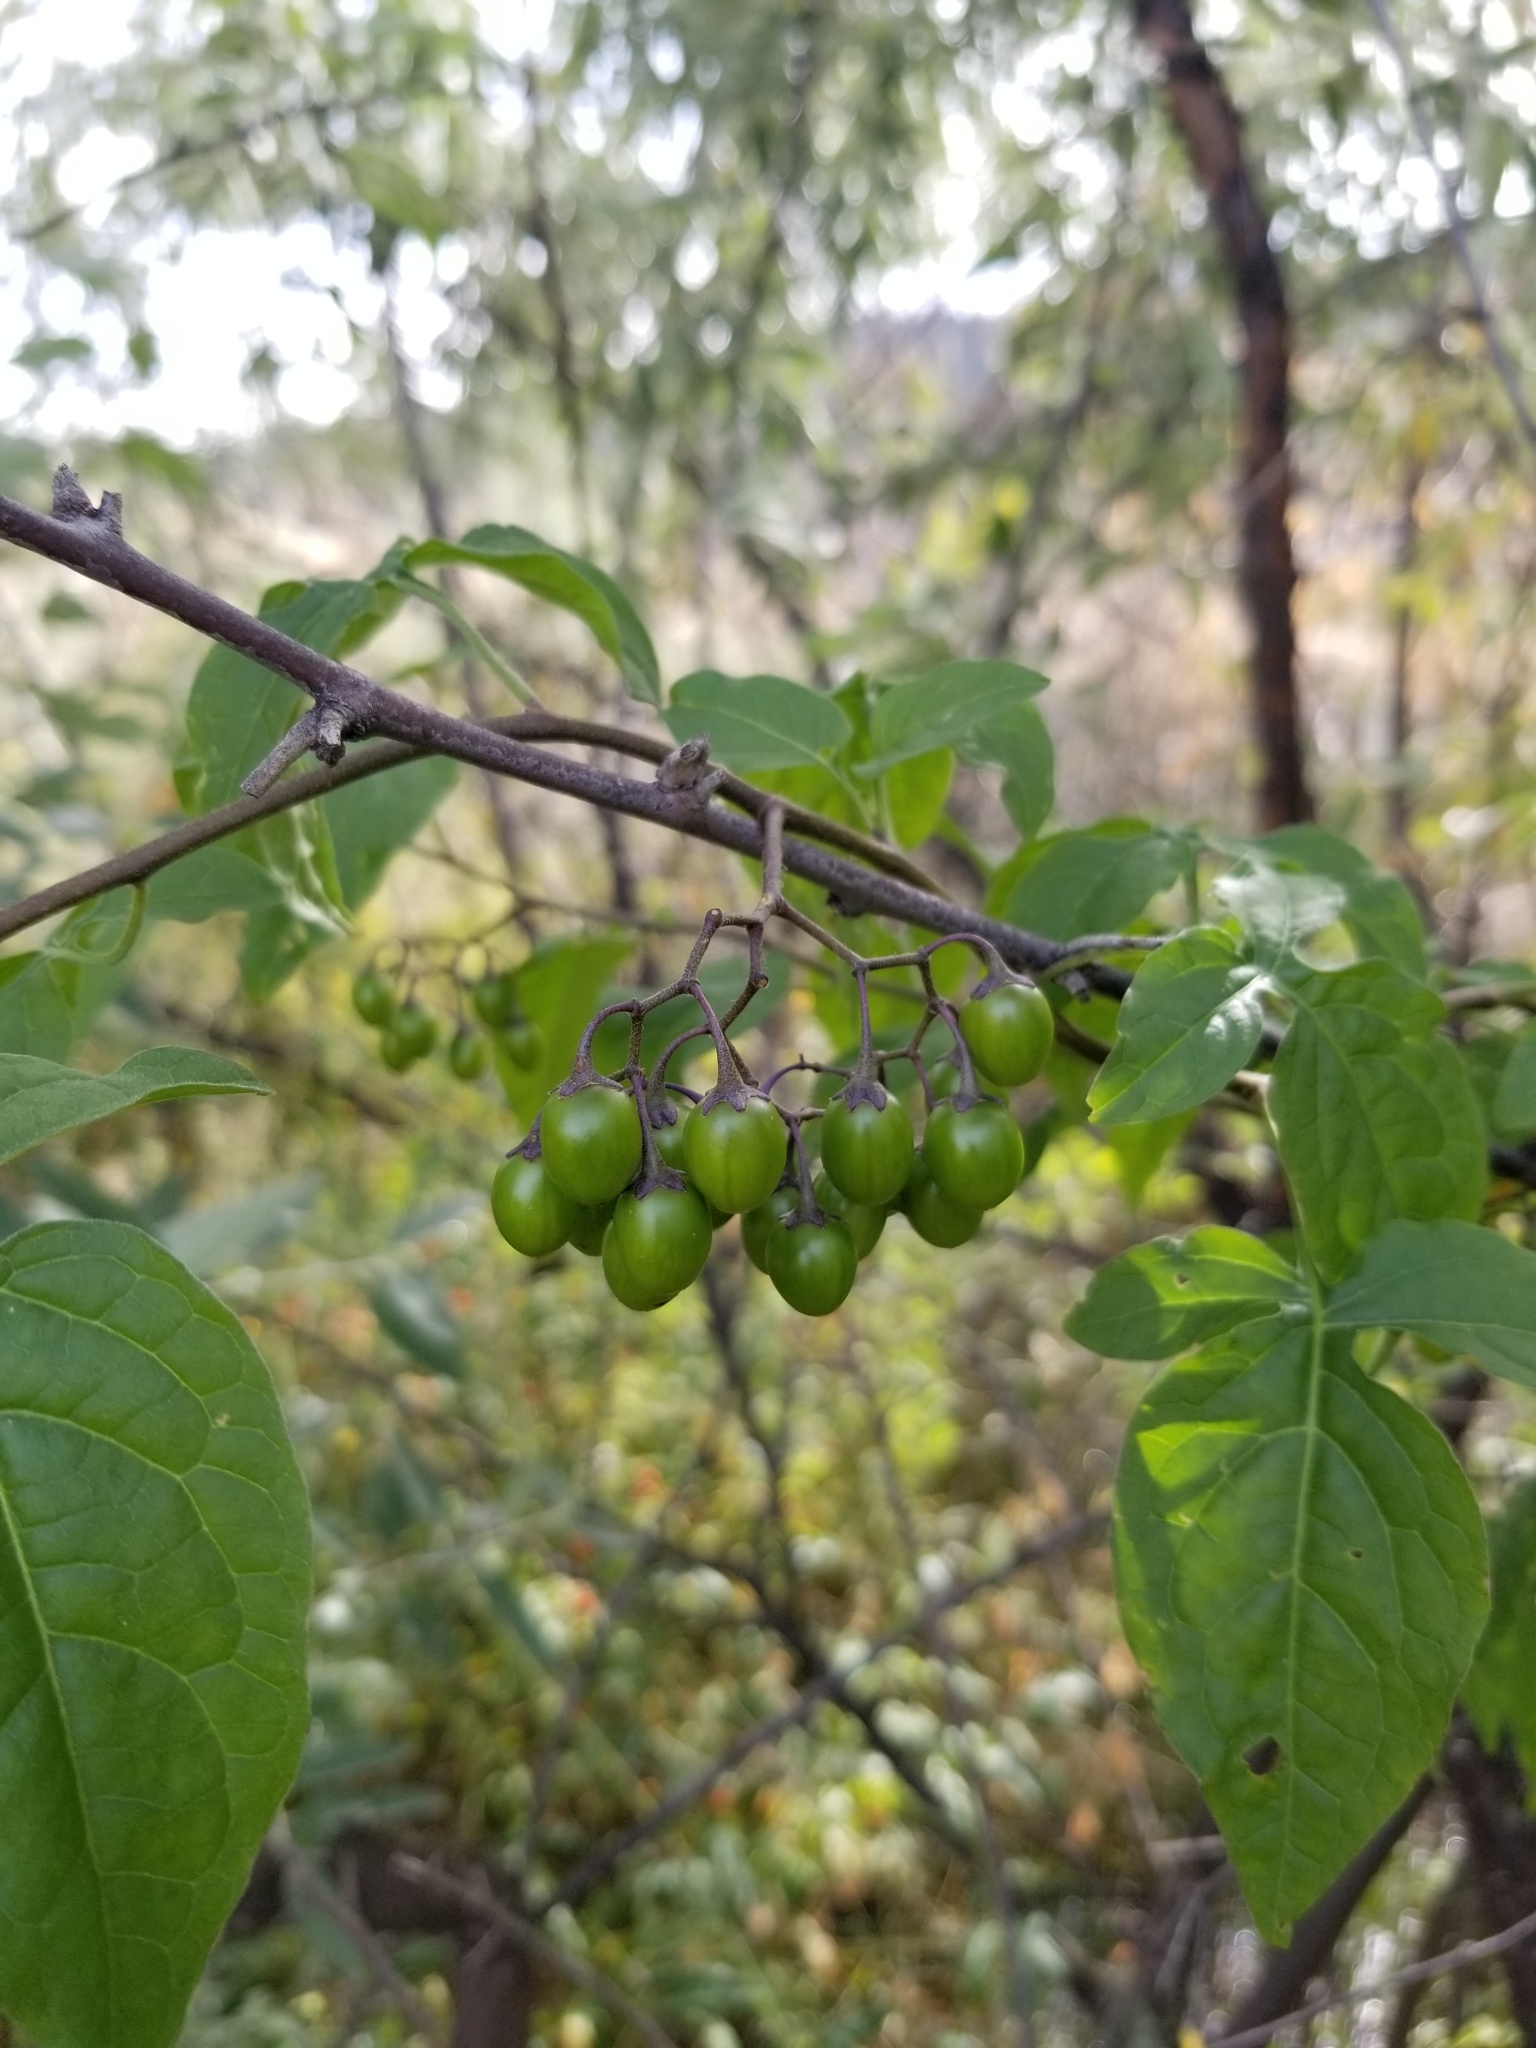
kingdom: Plantae
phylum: Tracheophyta
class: Magnoliopsida
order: Solanales
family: Solanaceae
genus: Solanum
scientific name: Solanum dulcamara
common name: Climbing nightshade
